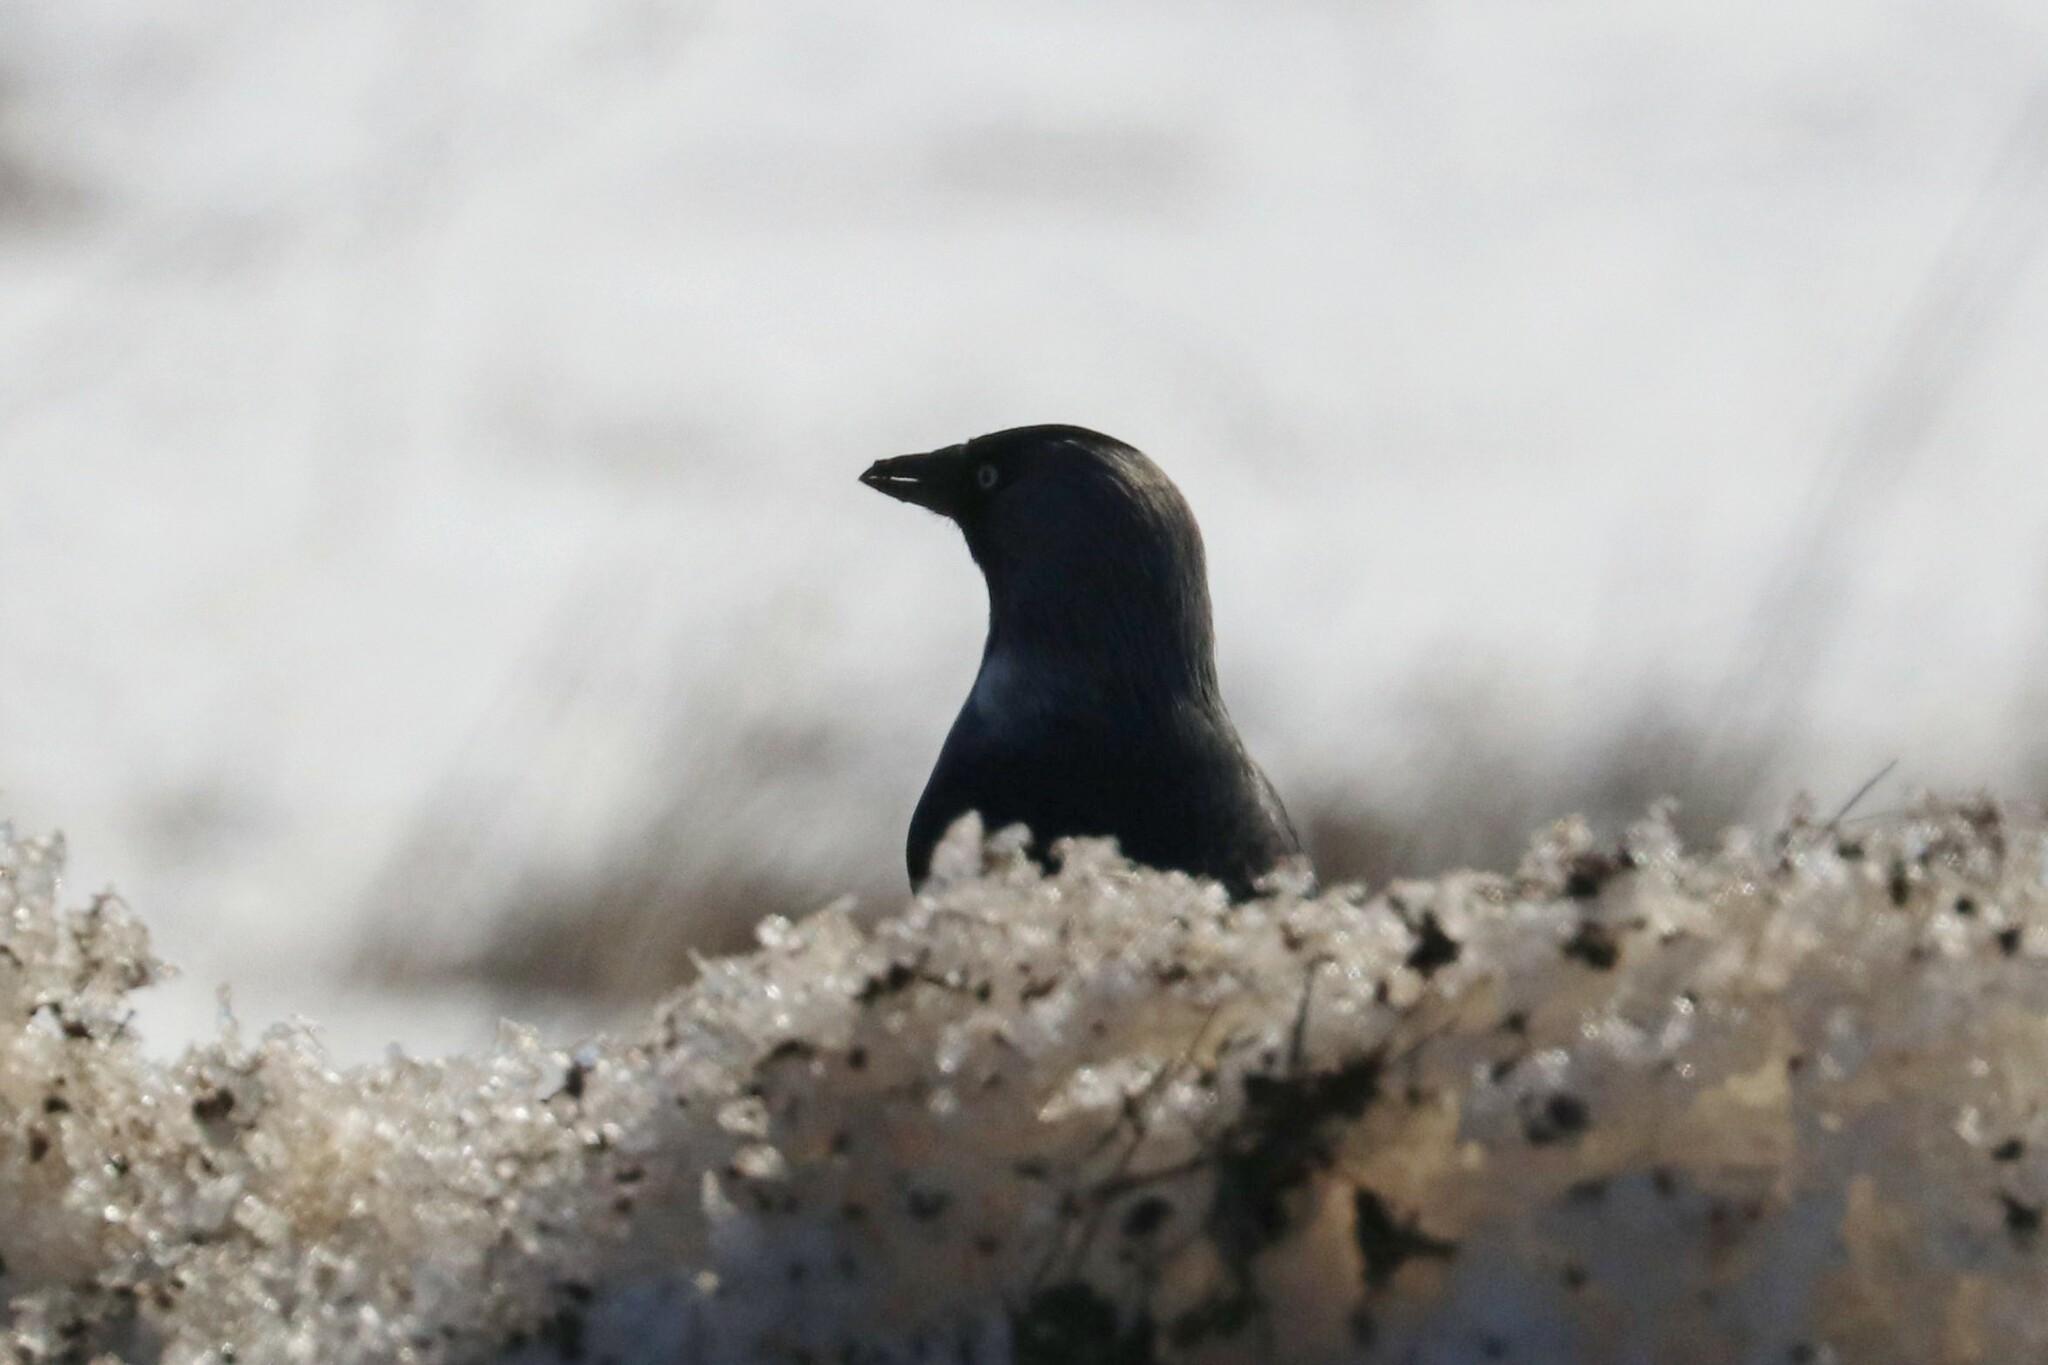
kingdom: Animalia
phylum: Chordata
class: Aves
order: Passeriformes
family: Corvidae
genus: Coloeus
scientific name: Coloeus monedula
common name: Western jackdaw
